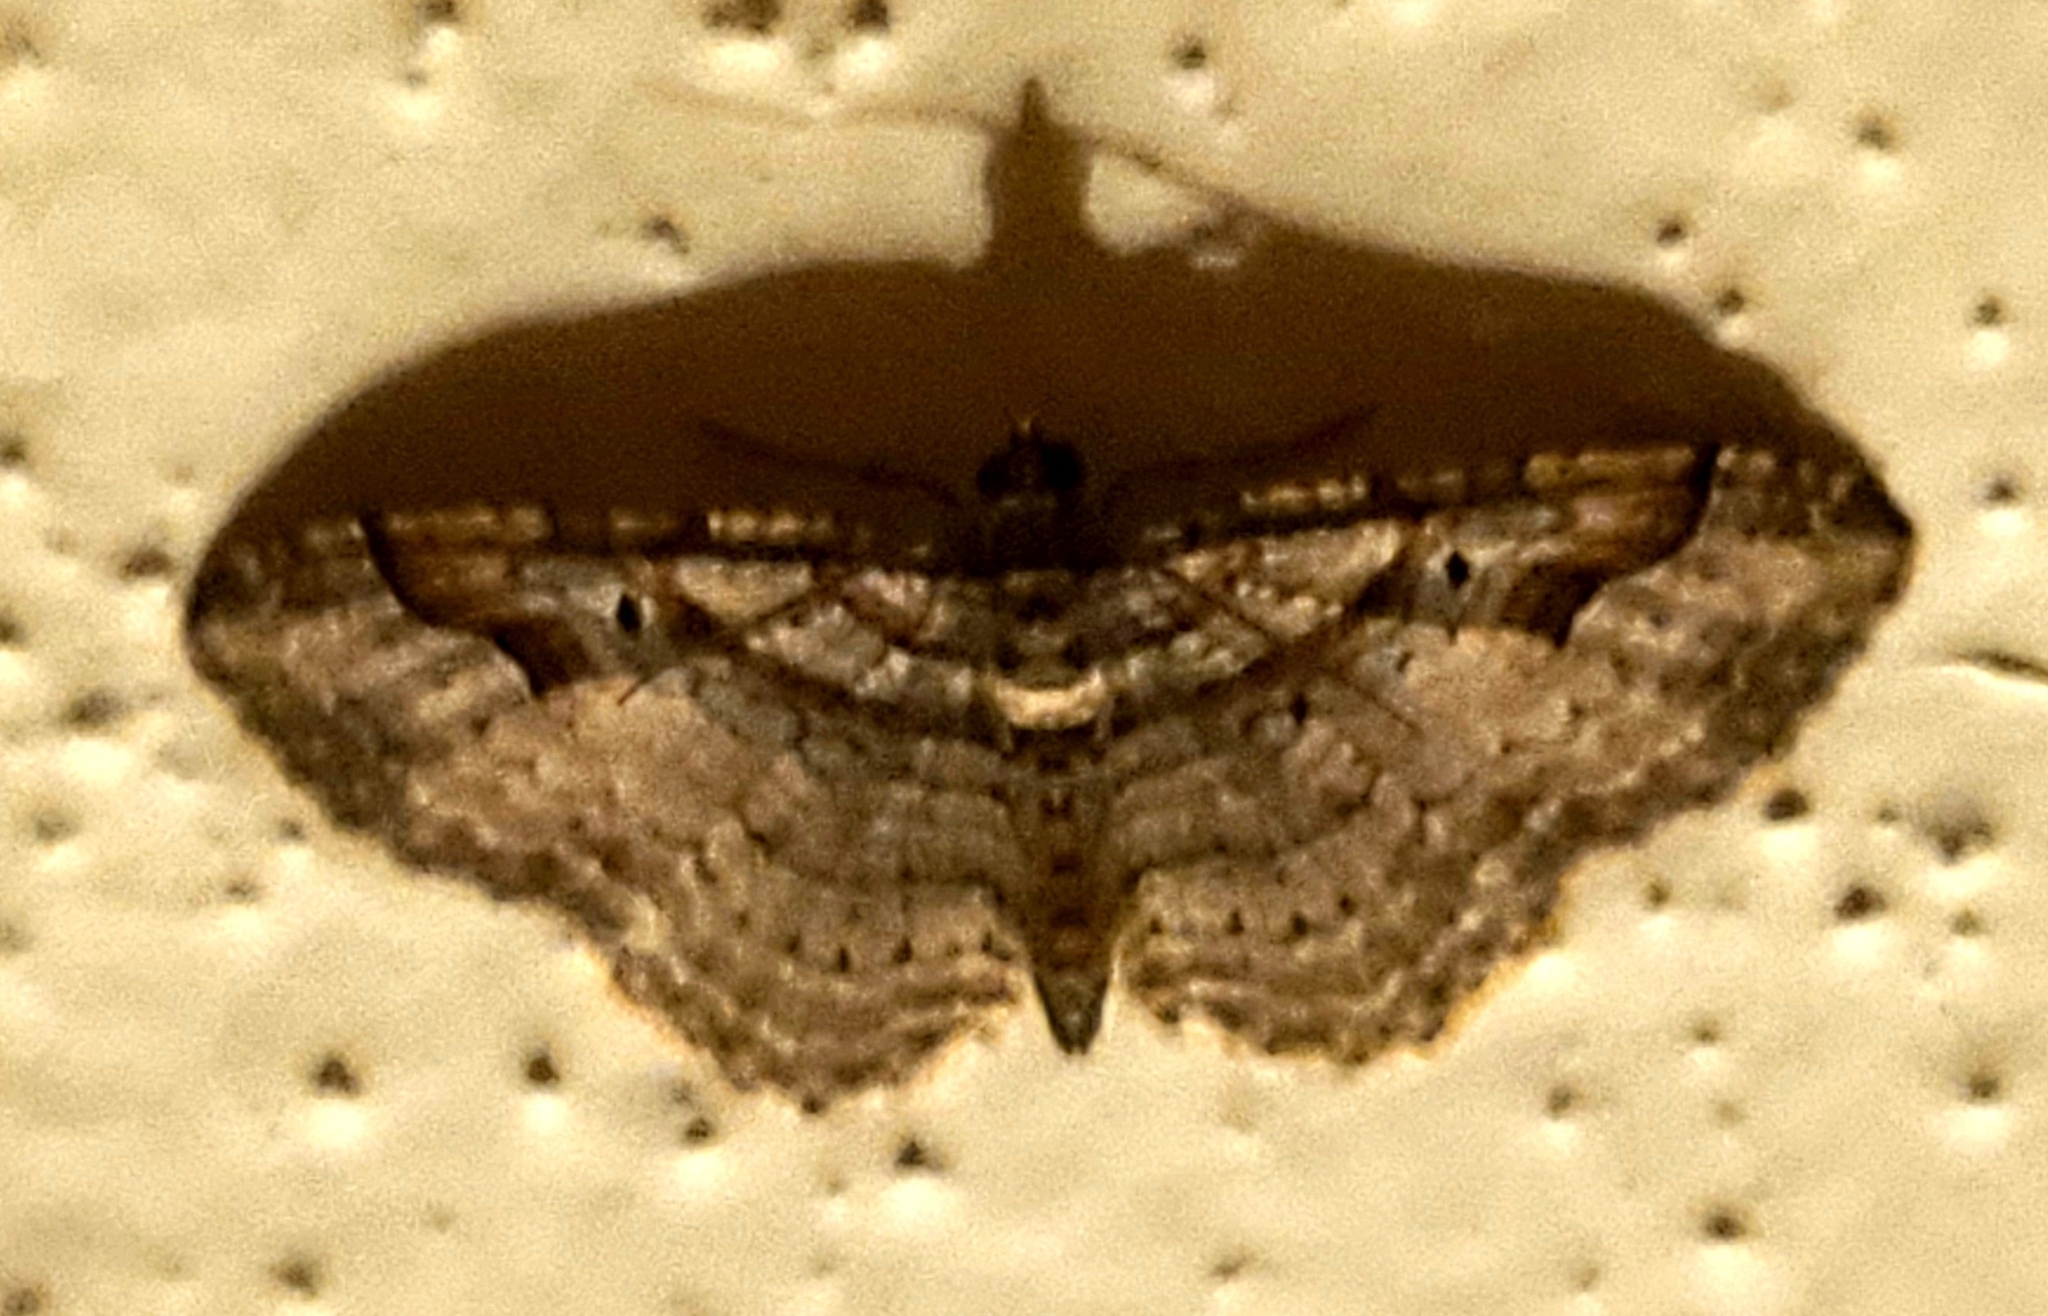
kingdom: Animalia
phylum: Arthropoda
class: Insecta
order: Lepidoptera
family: Geometridae
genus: Costaconvexa
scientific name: Costaconvexa centrostrigaria
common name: Bent-line carpet
